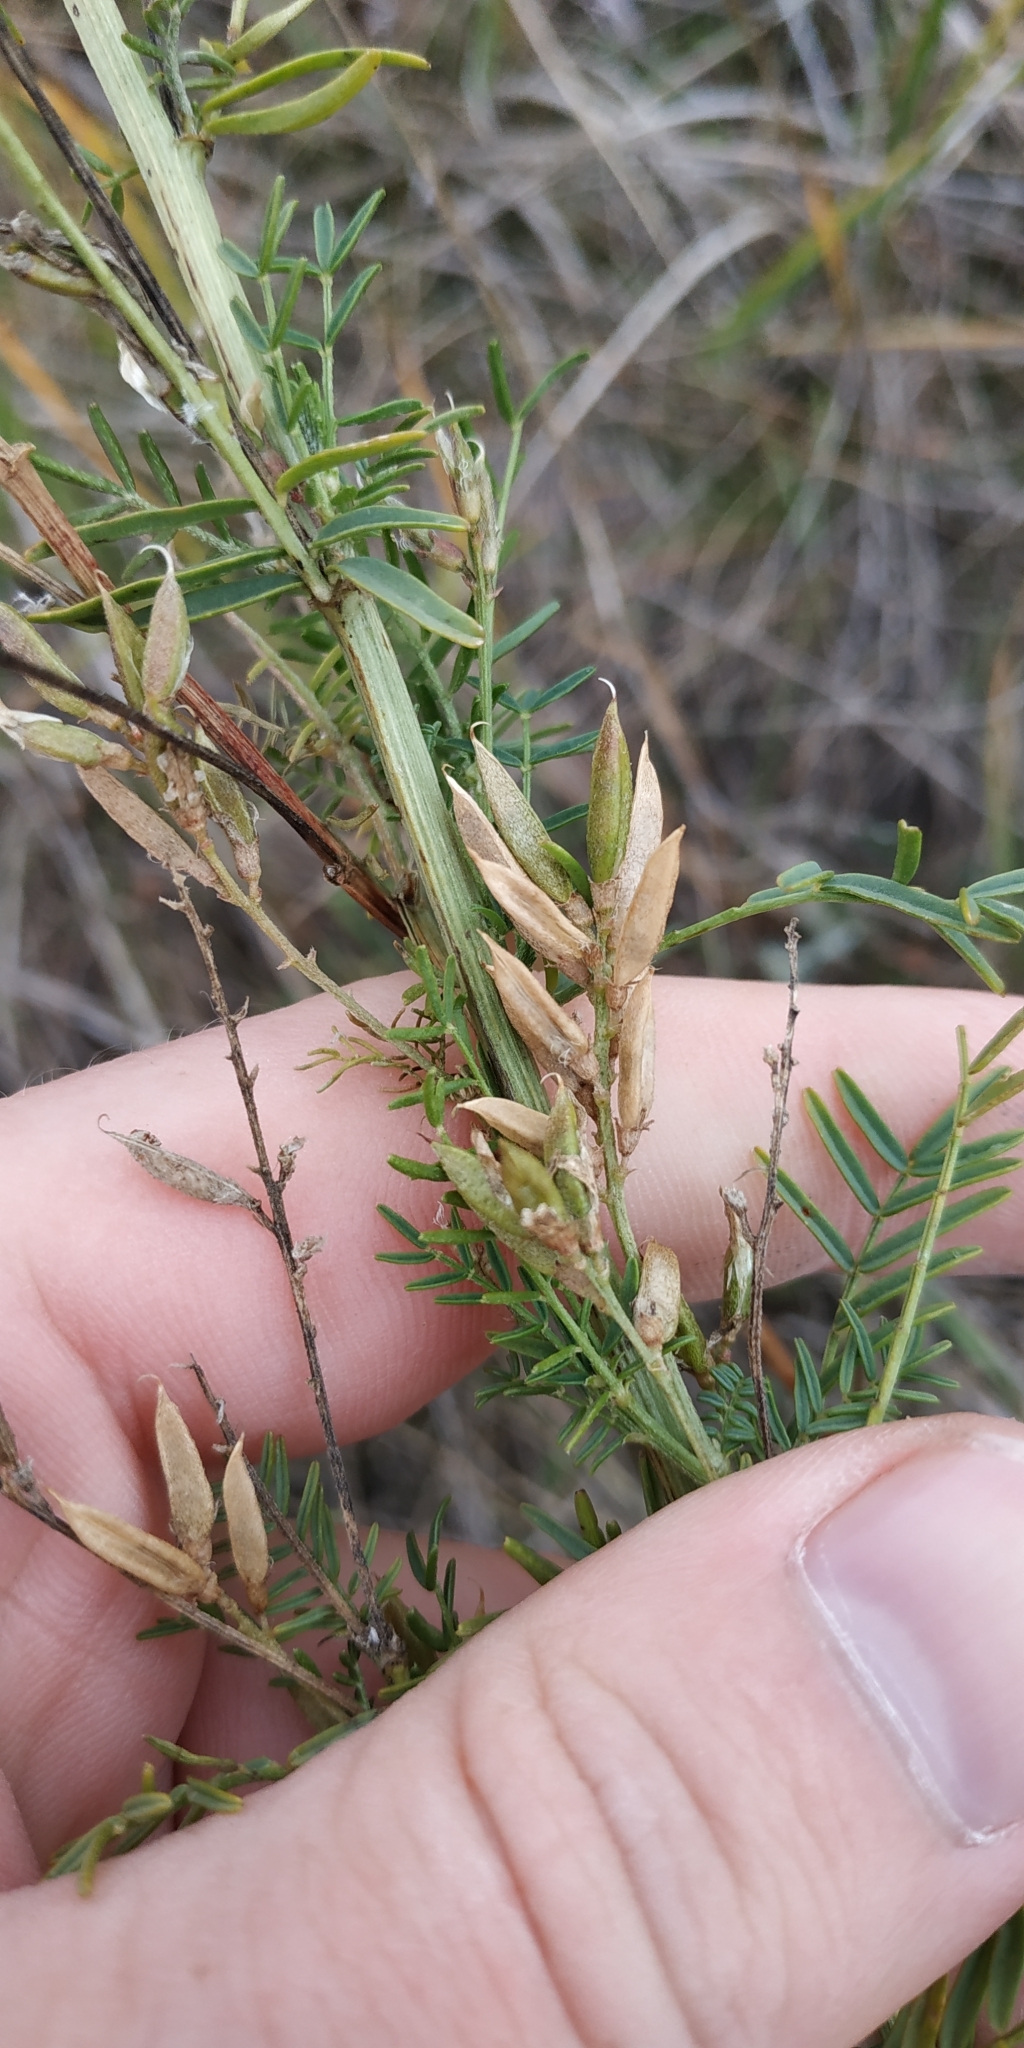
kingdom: Plantae
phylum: Tracheophyta
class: Magnoliopsida
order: Fabales
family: Fabaceae
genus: Astragalus
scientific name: Astragalus sulcatus
